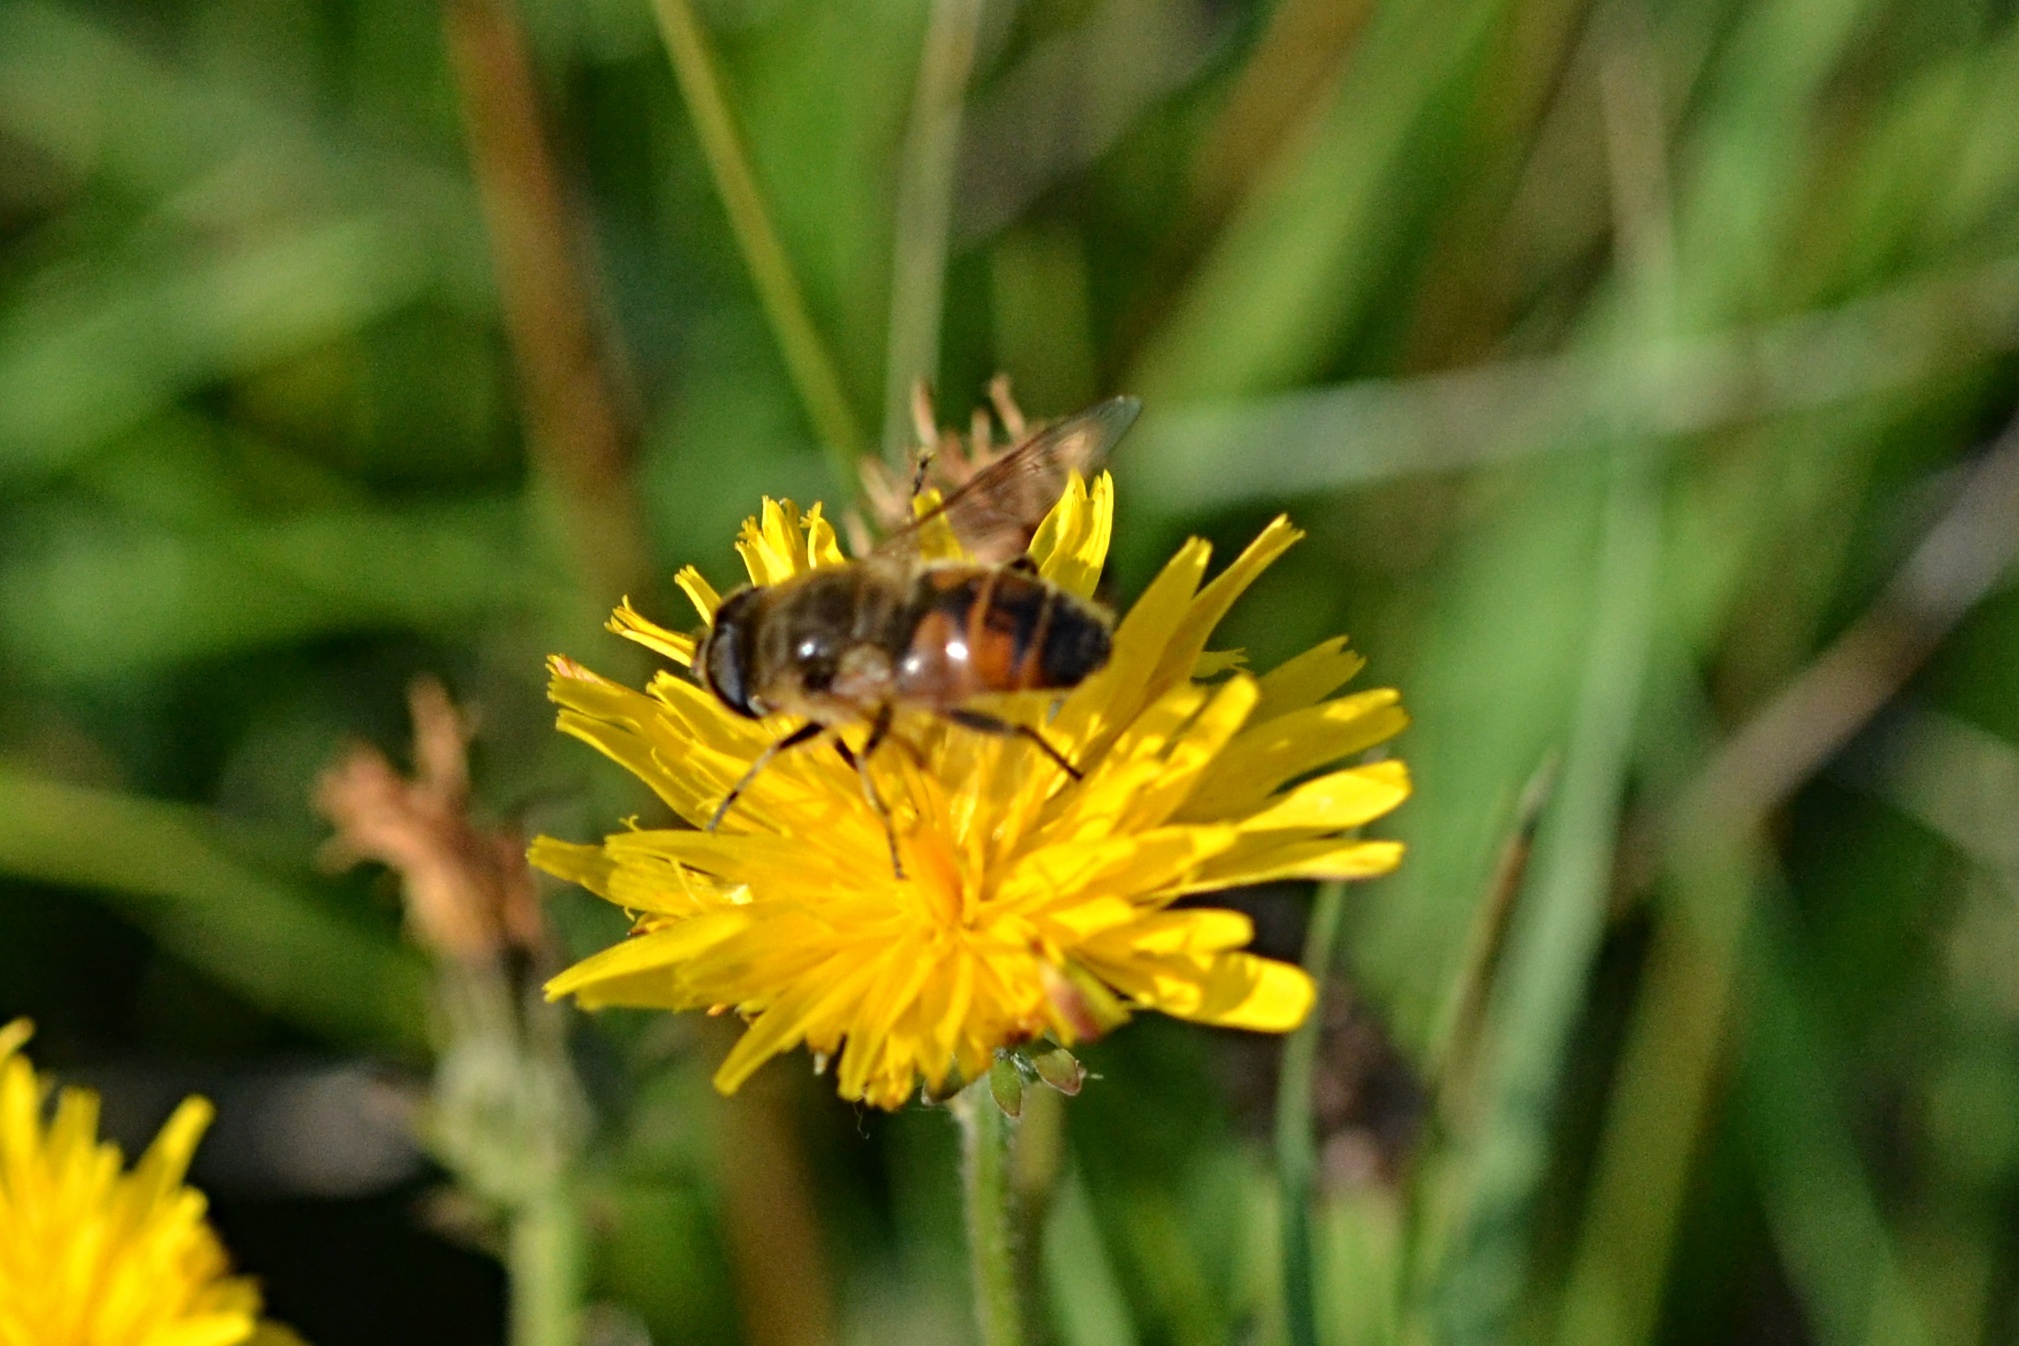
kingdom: Animalia
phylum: Arthropoda
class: Insecta
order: Diptera
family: Syrphidae
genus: Eristalis
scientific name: Eristalis tenax
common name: Drone fly
